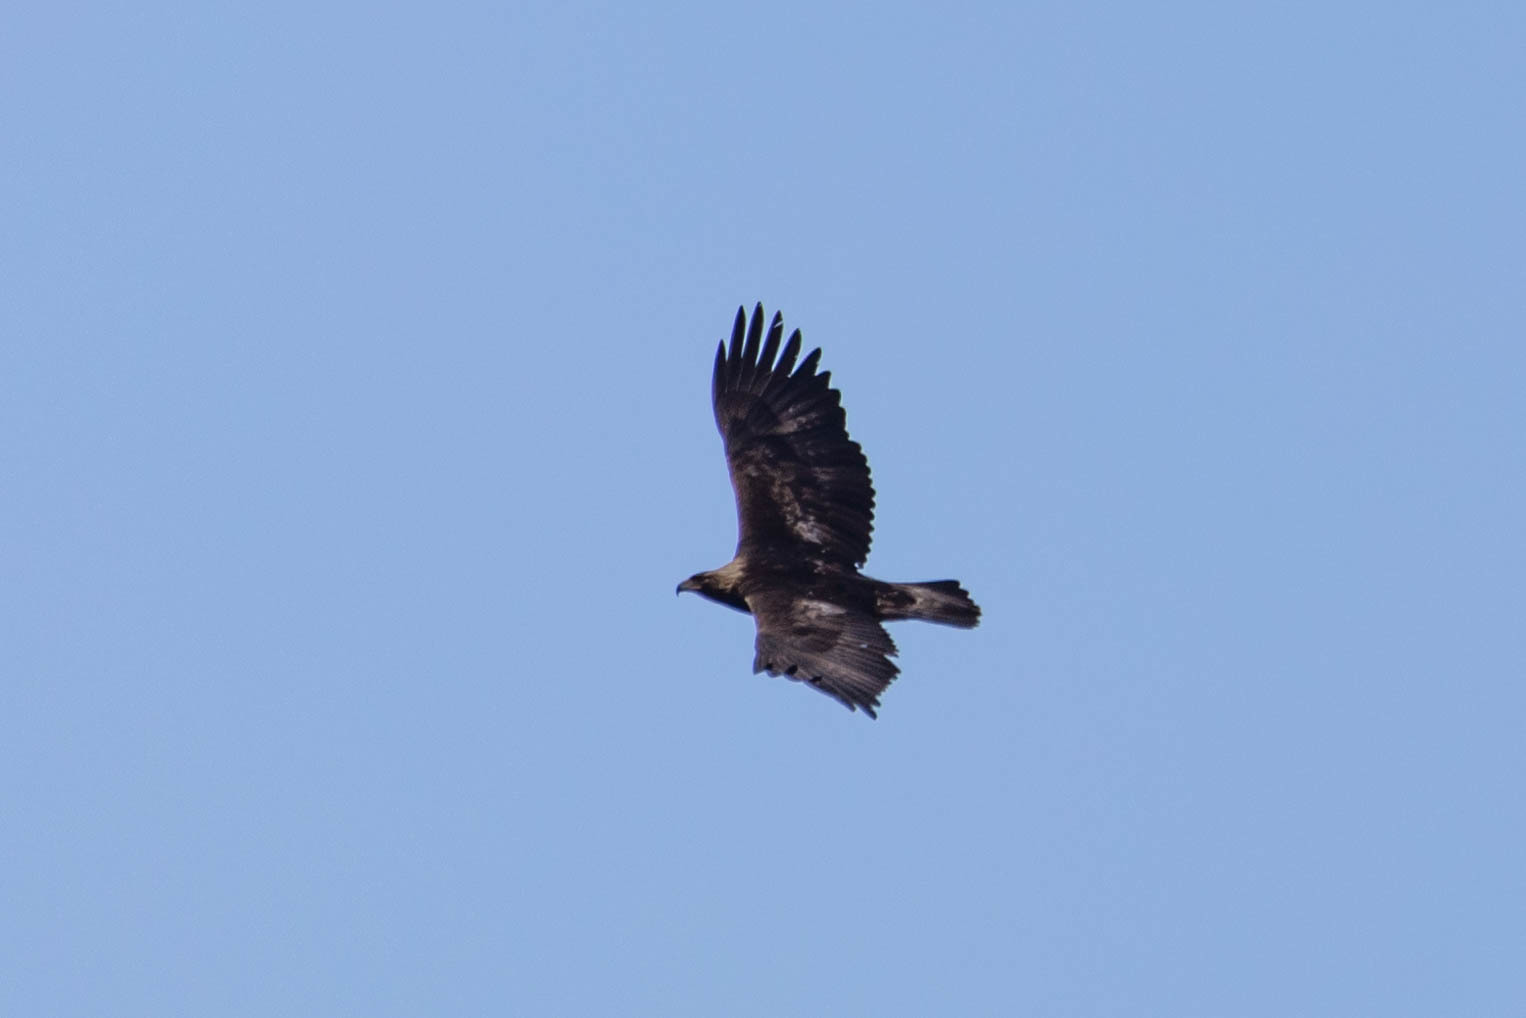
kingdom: Animalia
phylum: Chordata
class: Aves
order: Accipitriformes
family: Accipitridae
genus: Aquila
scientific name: Aquila chrysaetos
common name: Golden eagle
